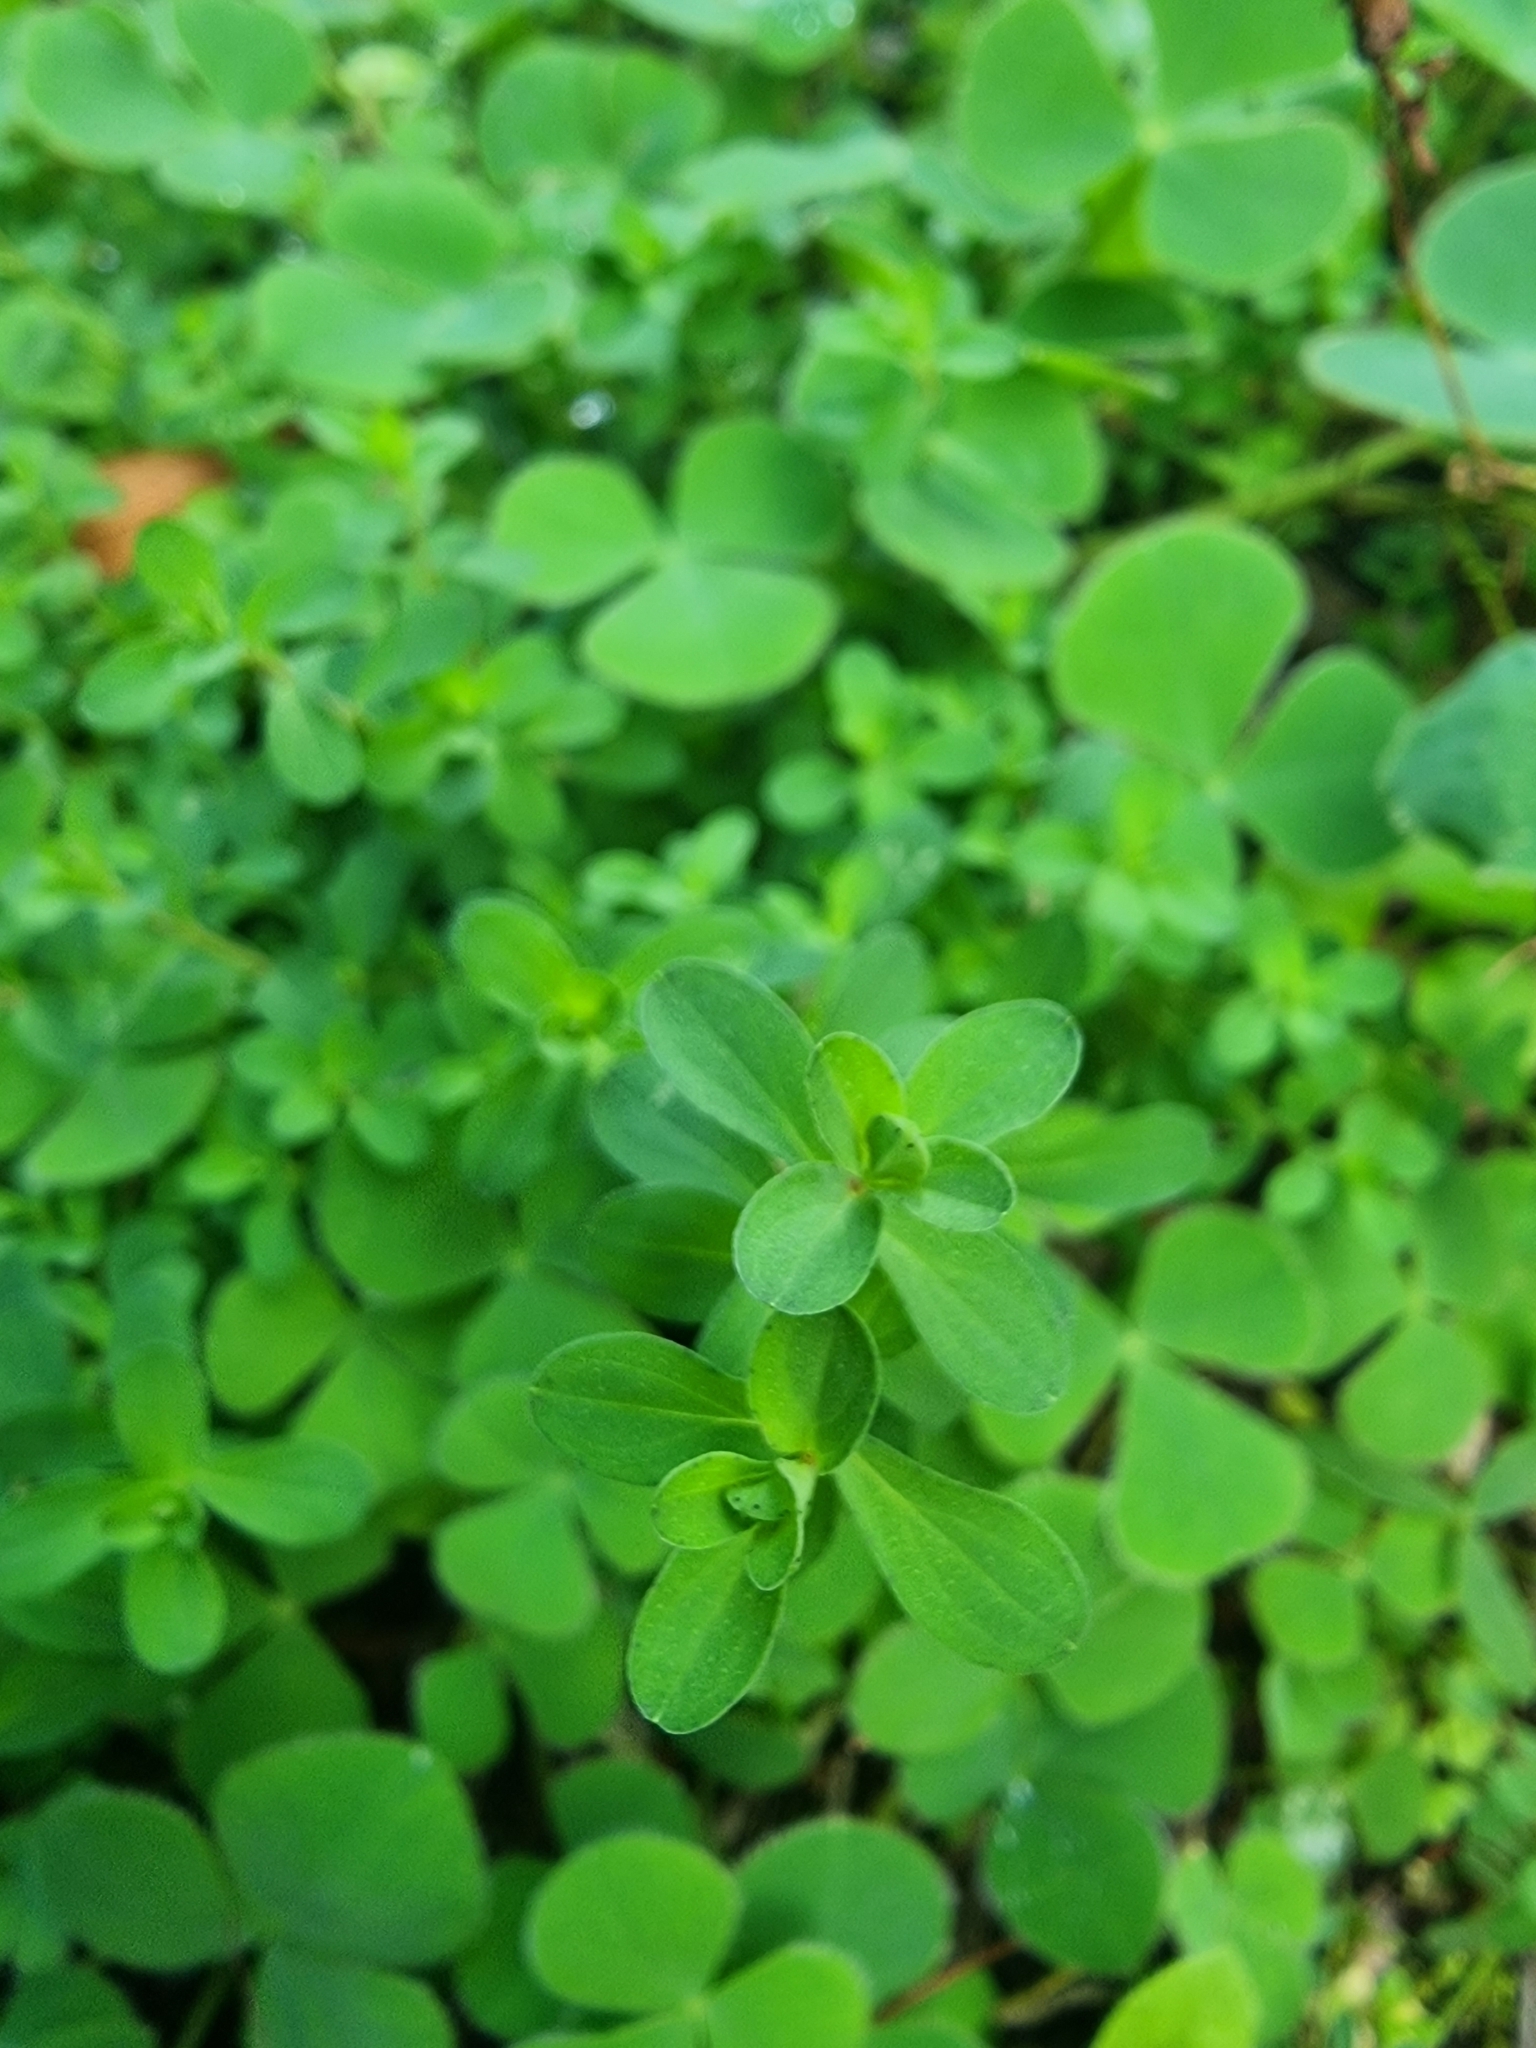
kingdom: Plantae
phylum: Tracheophyta
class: Magnoliopsida
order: Malpighiales
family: Hypericaceae
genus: Hypericum
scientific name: Hypericum perforatum
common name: Common st. johnswort
